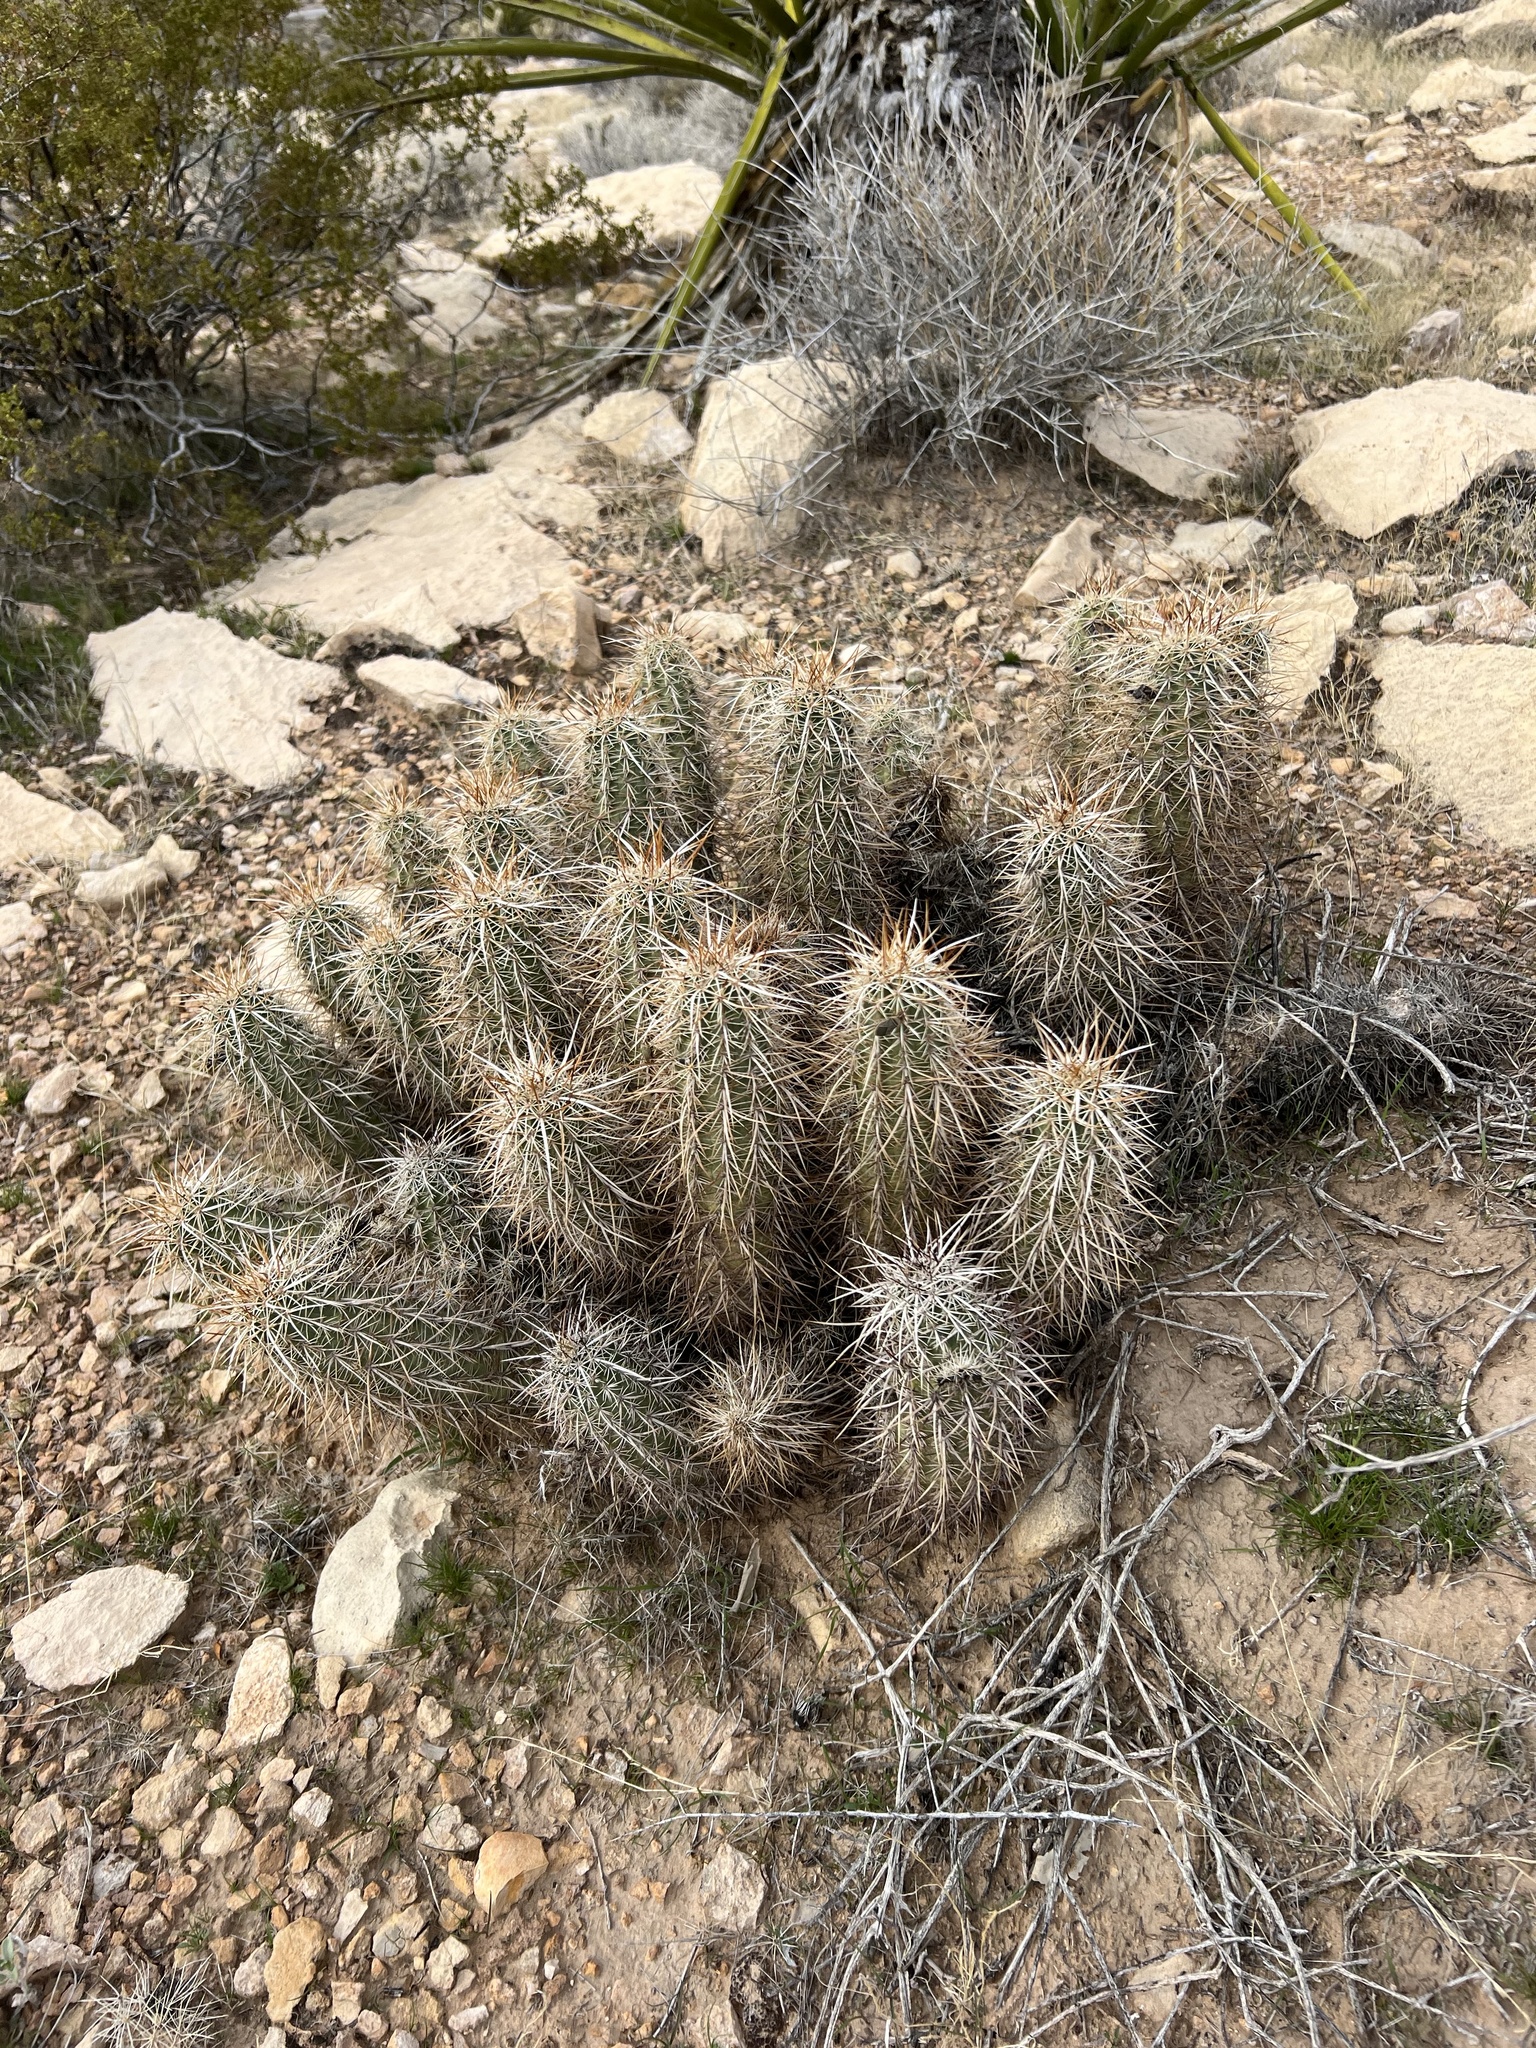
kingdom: Plantae
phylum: Tracheophyta
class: Magnoliopsida
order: Caryophyllales
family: Cactaceae
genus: Echinocereus
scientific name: Echinocereus engelmannii
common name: Engelmann's hedgehog cactus
